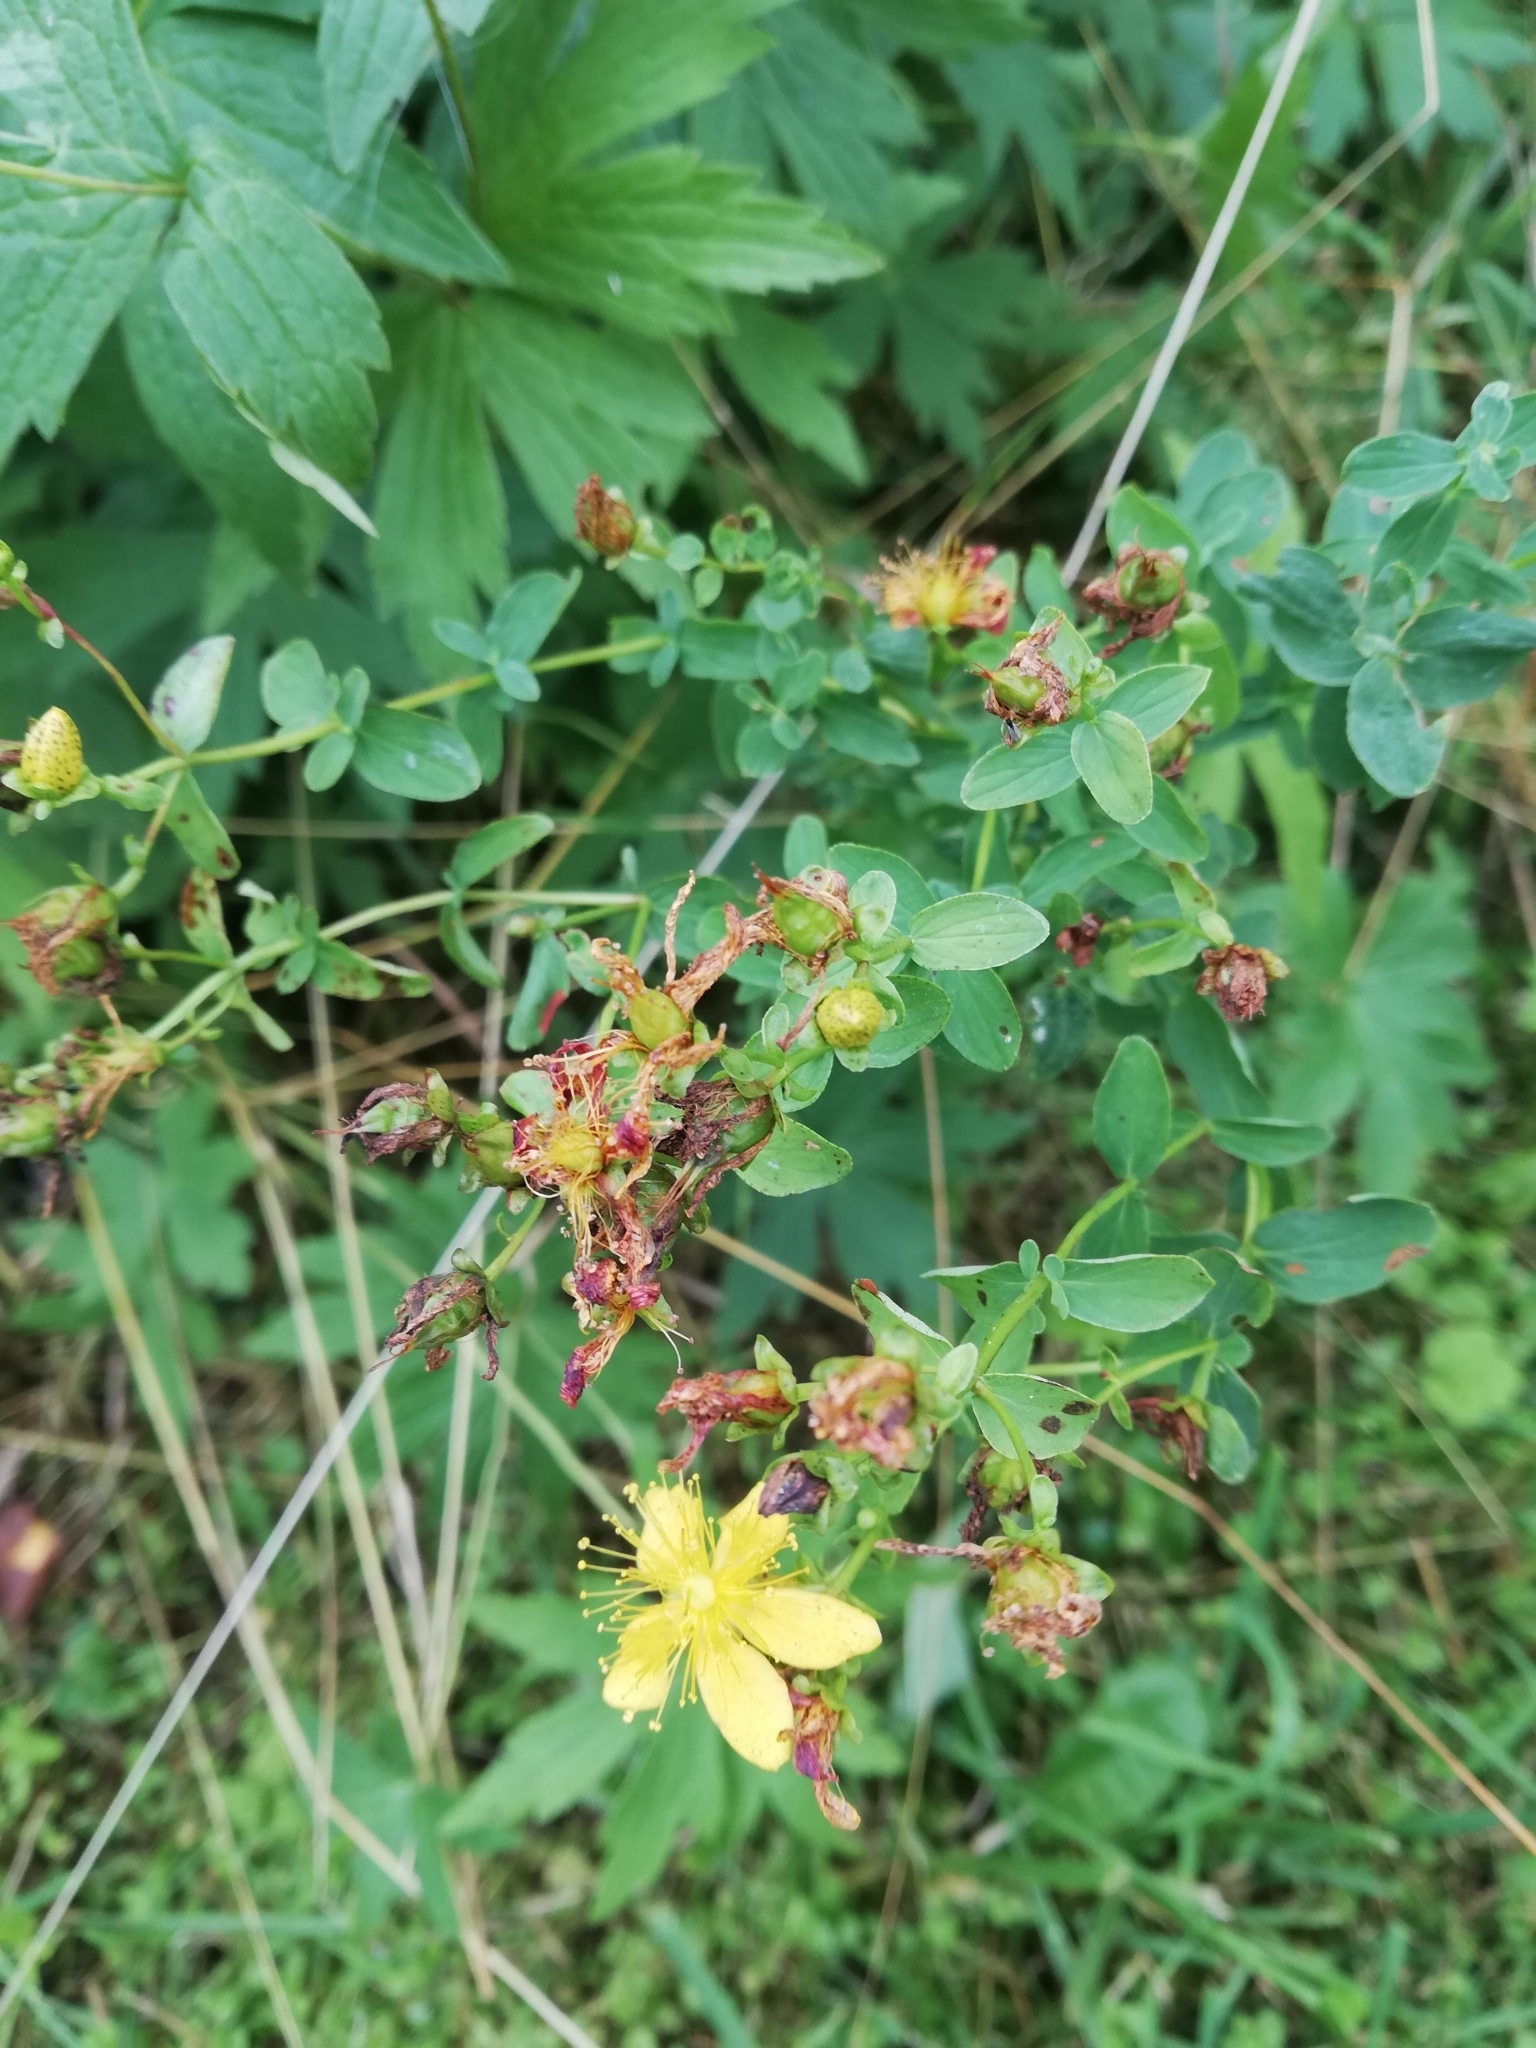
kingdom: Plantae
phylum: Tracheophyta
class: Magnoliopsida
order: Malpighiales
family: Hypericaceae
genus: Hypericum
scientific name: Hypericum maculatum
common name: Imperforate st. john's-wort
